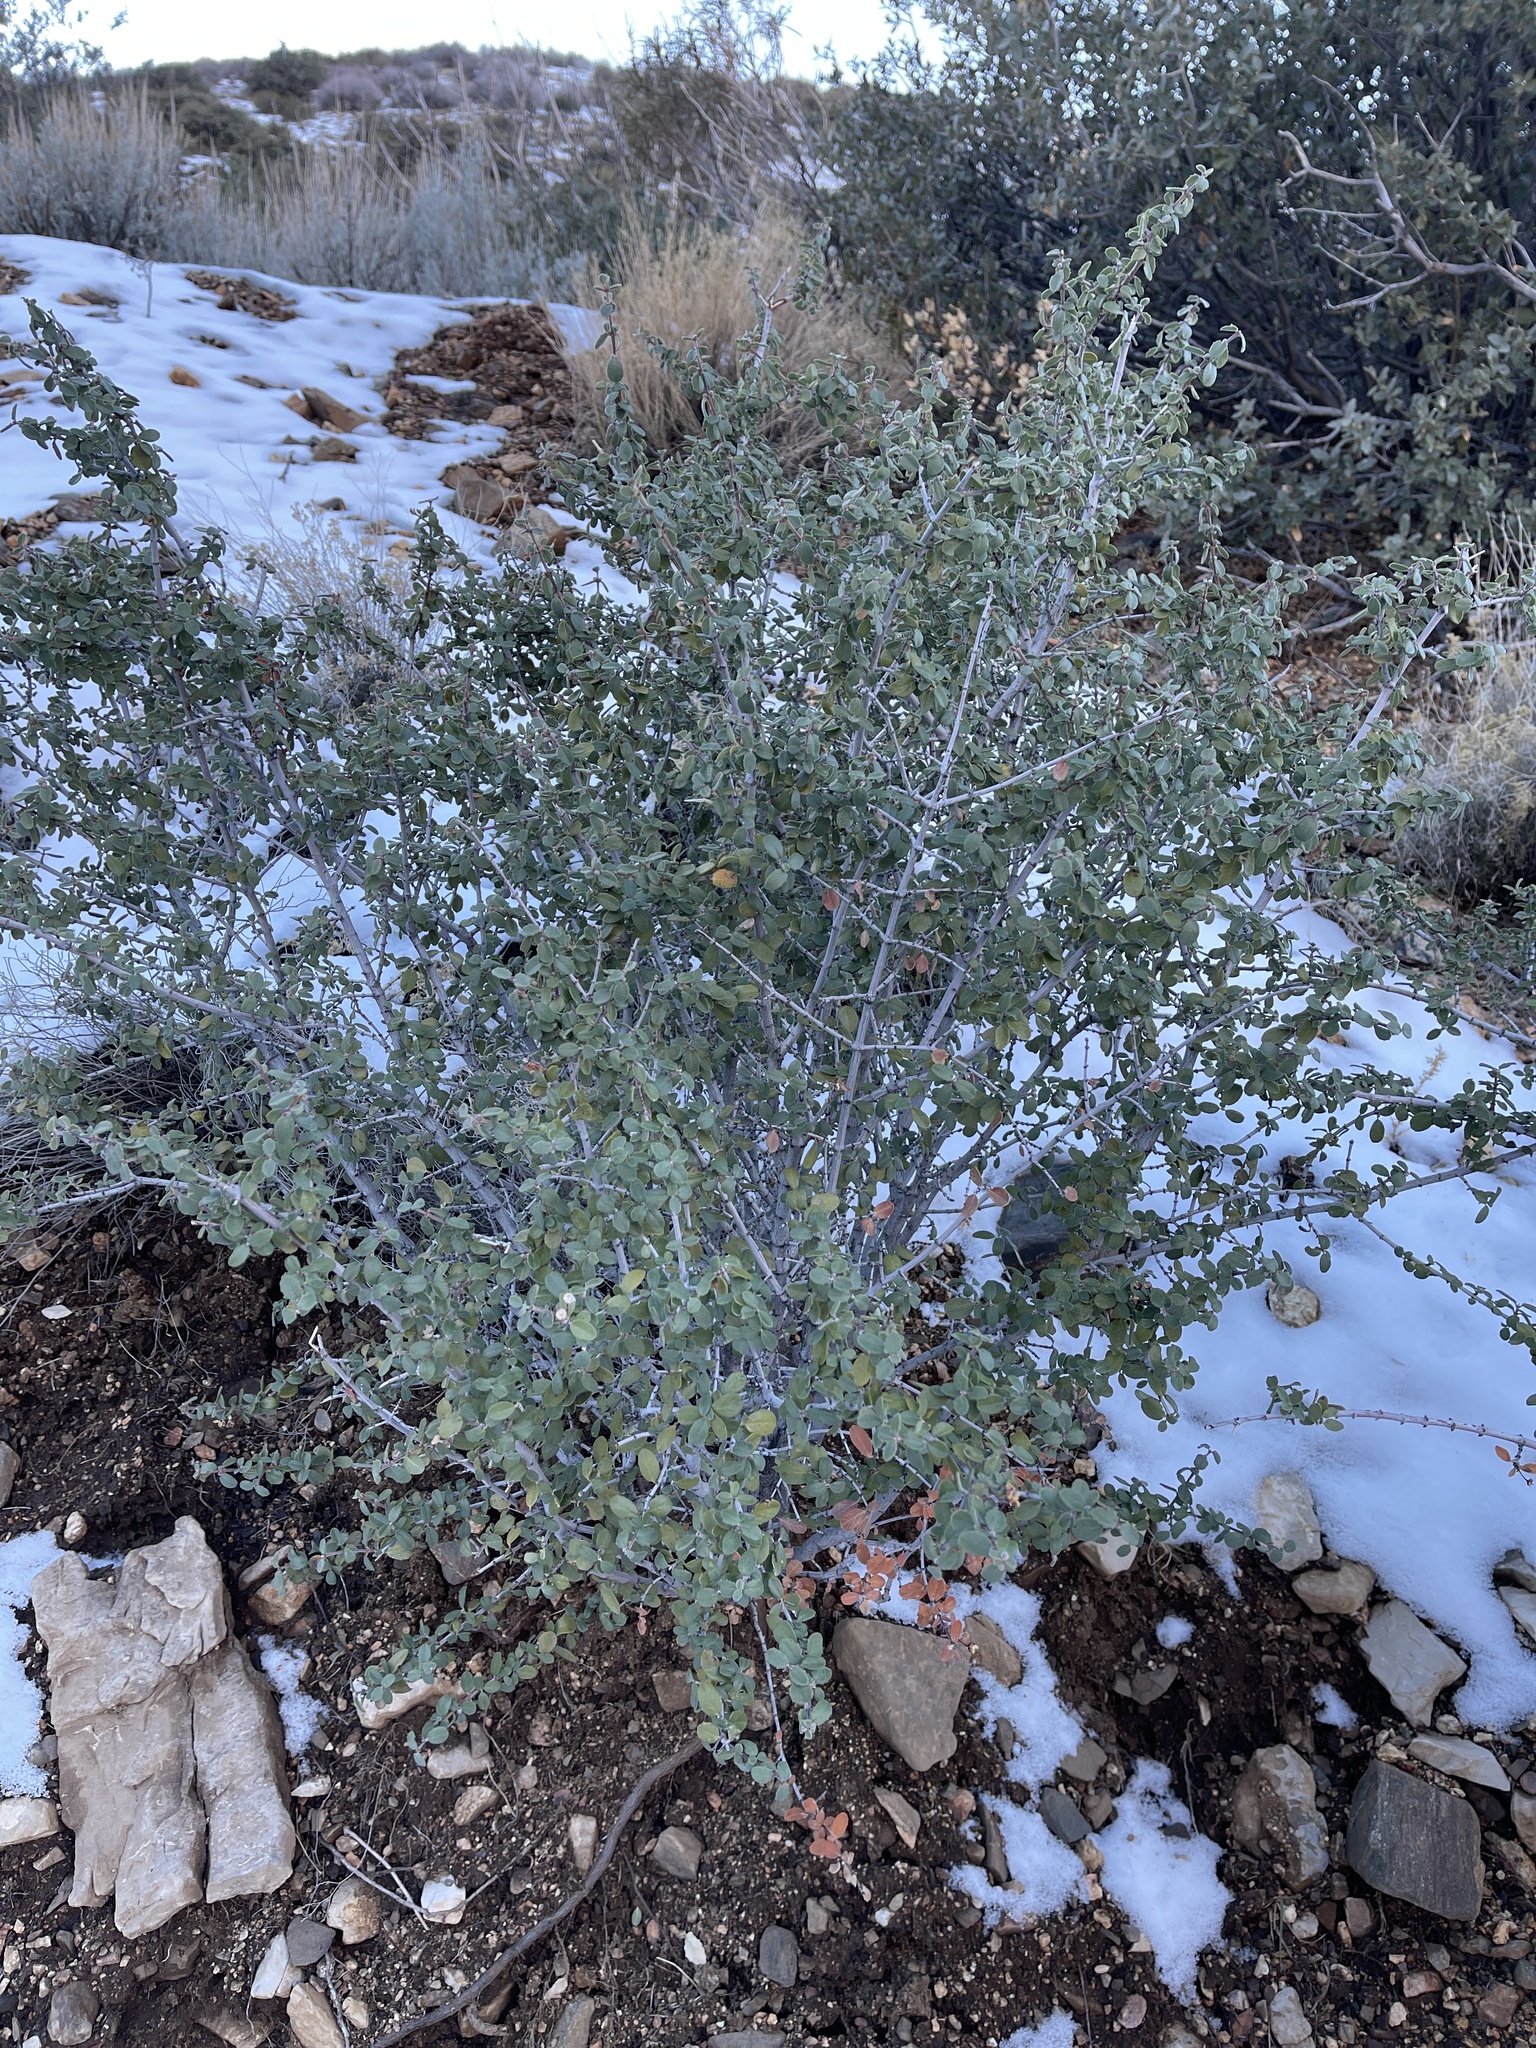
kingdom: Plantae
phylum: Tracheophyta
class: Magnoliopsida
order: Rosales
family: Rhamnaceae
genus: Ceanothus
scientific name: Ceanothus pauciflorus
